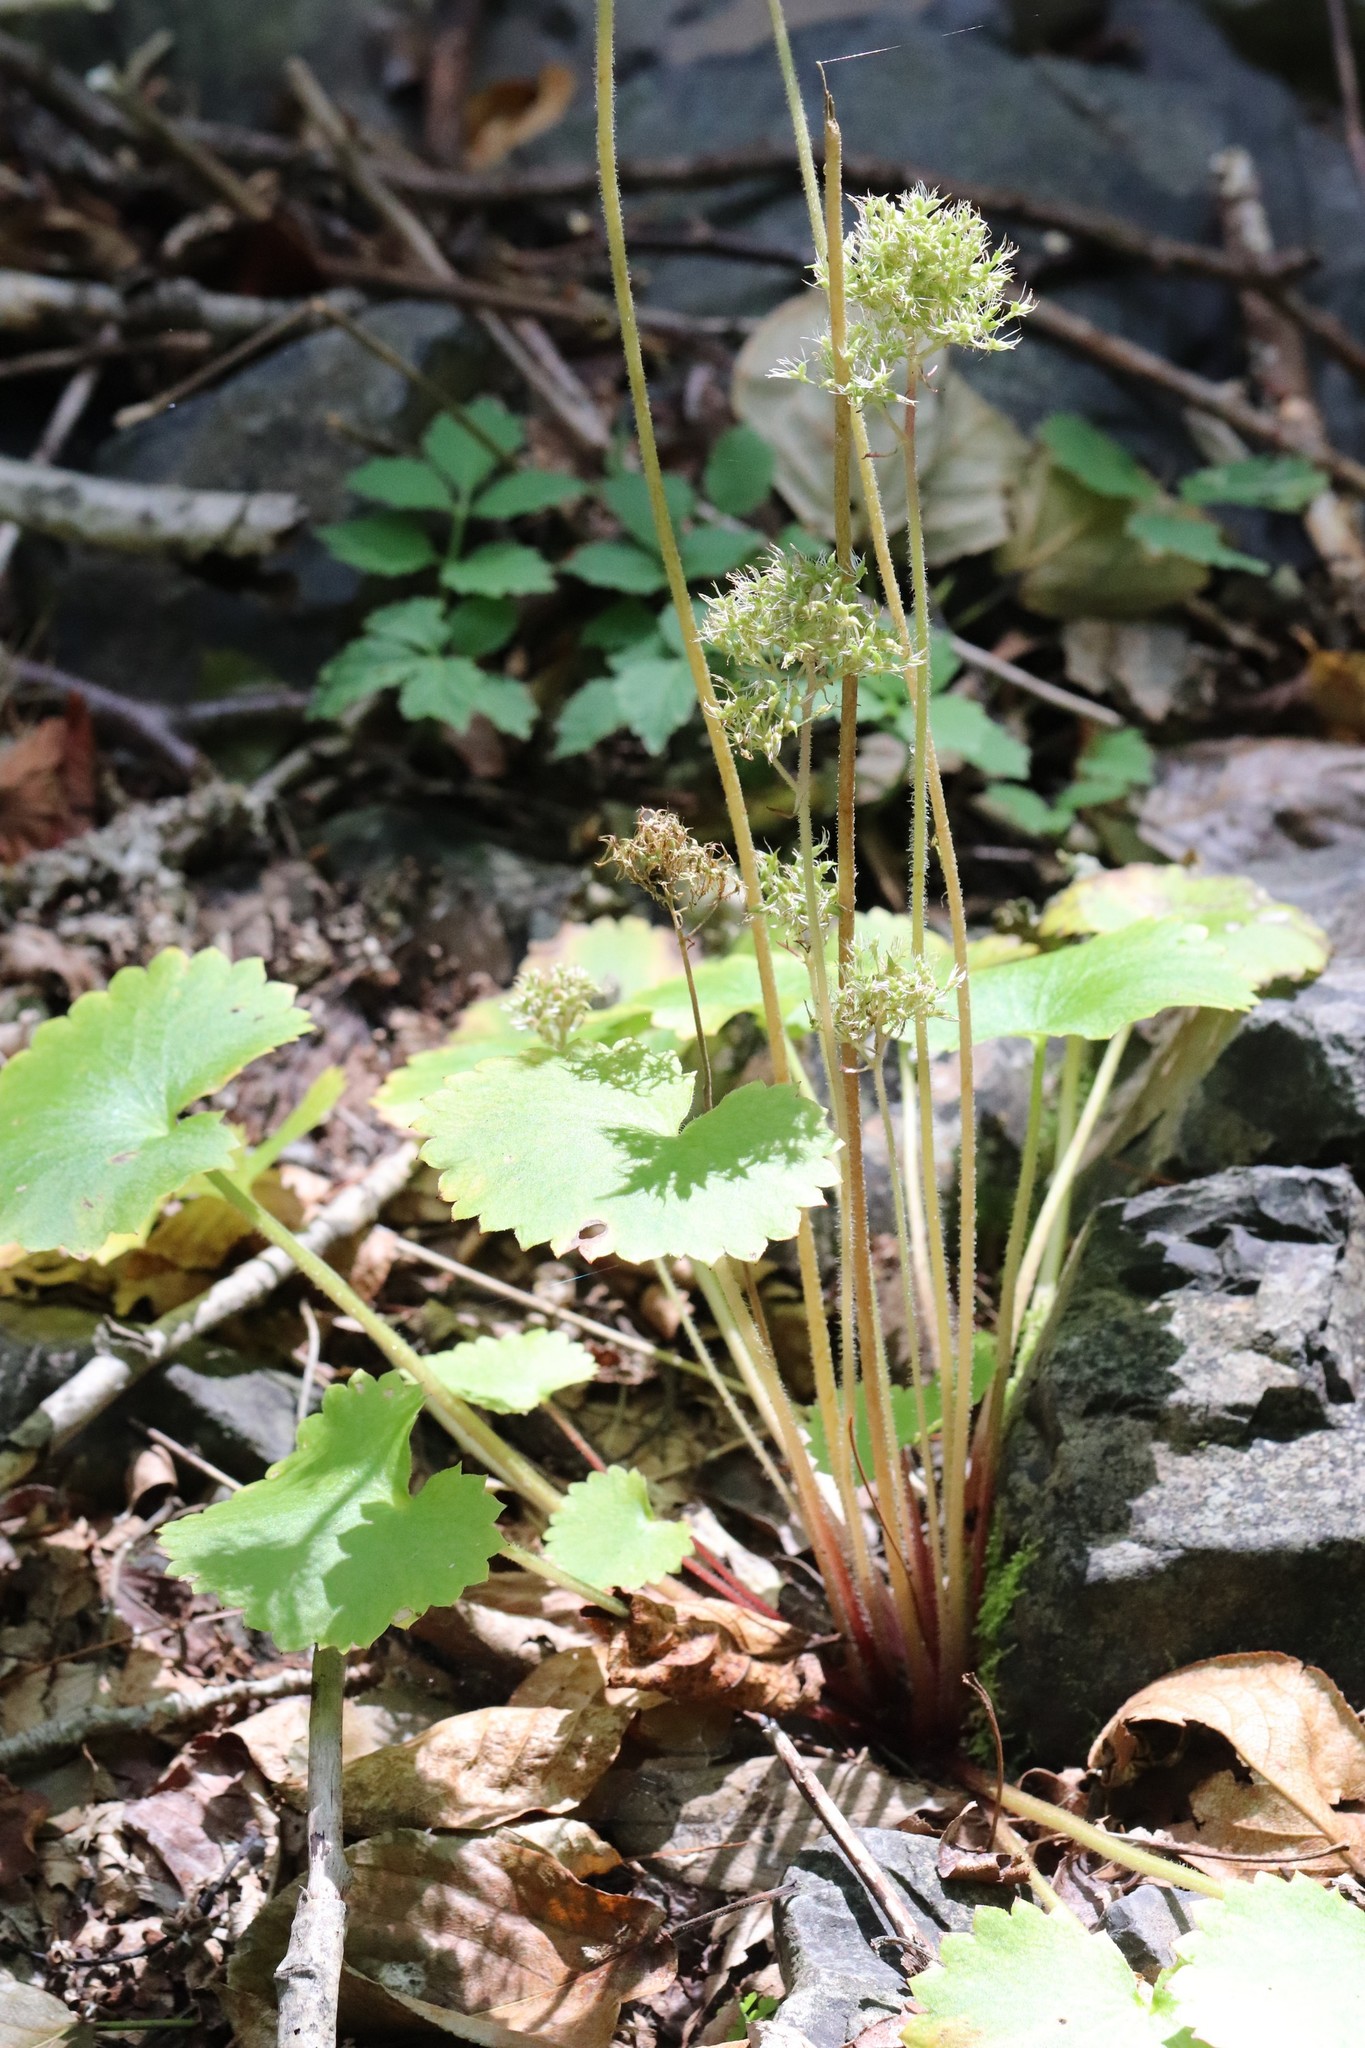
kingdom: Plantae
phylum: Tracheophyta
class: Magnoliopsida
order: Saxifragales
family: Saxifragaceae
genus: Micranthes
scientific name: Micranthes manchuriensis
